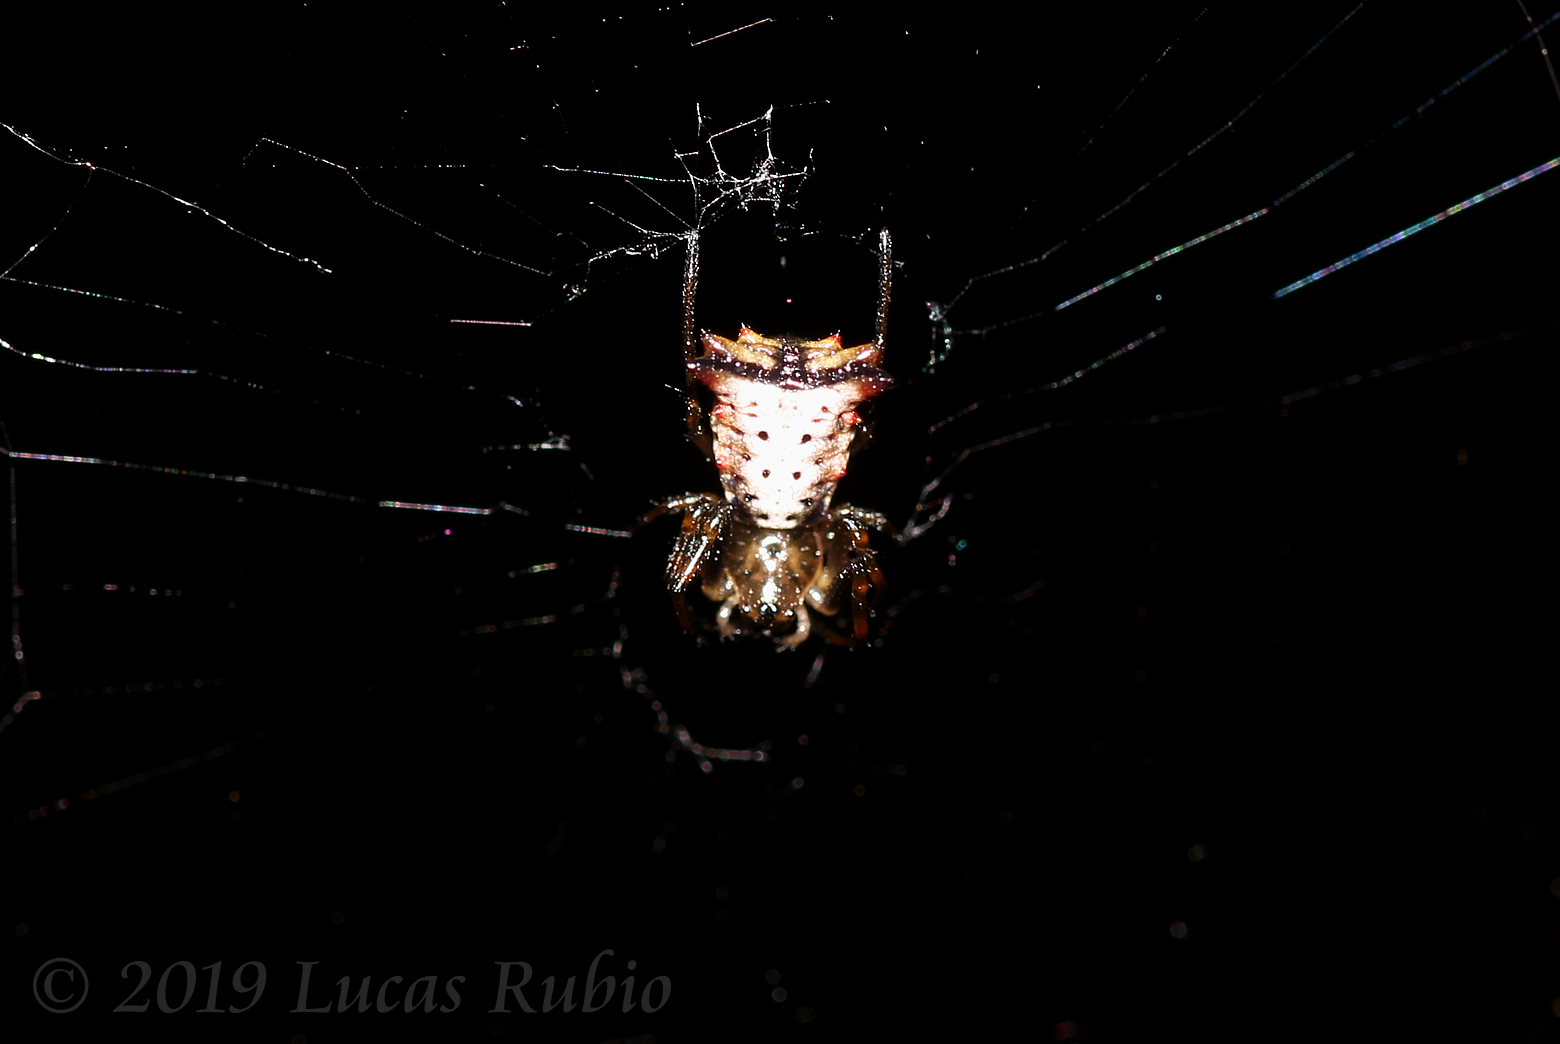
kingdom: Animalia
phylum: Arthropoda
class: Arachnida
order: Araneae
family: Araneidae
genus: Micrathena
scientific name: Micrathena furva
